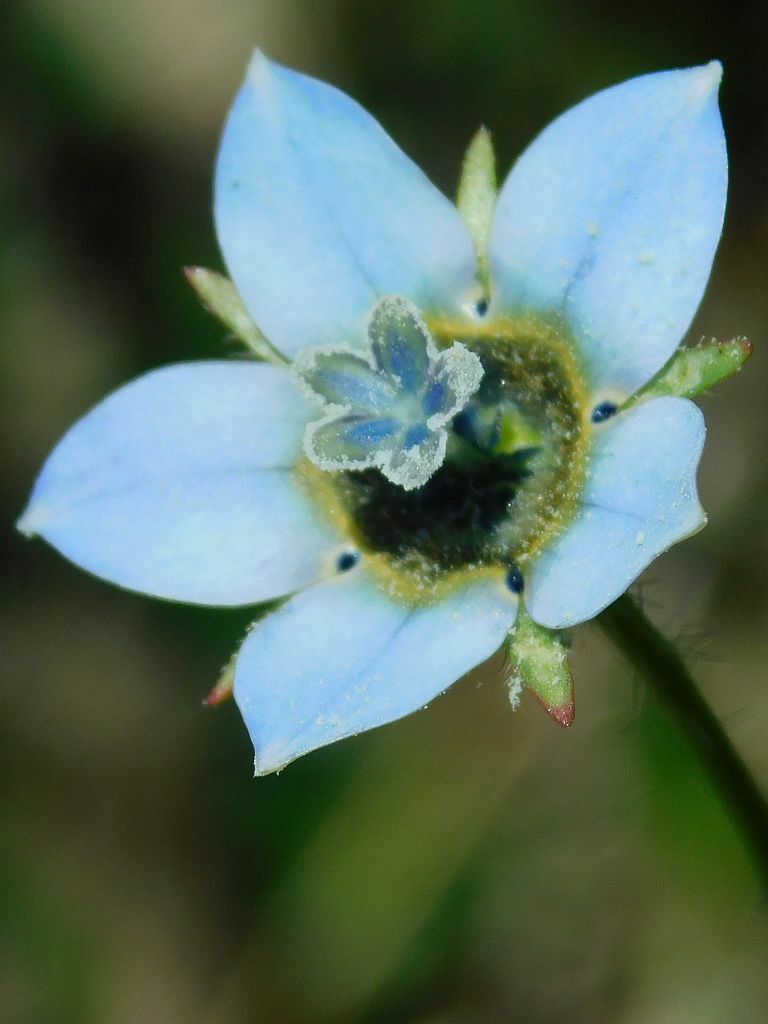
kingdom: Plantae
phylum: Tracheophyta
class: Magnoliopsida
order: Asterales
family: Campanulaceae
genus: Wahlenbergia
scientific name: Wahlenbergia capensis
